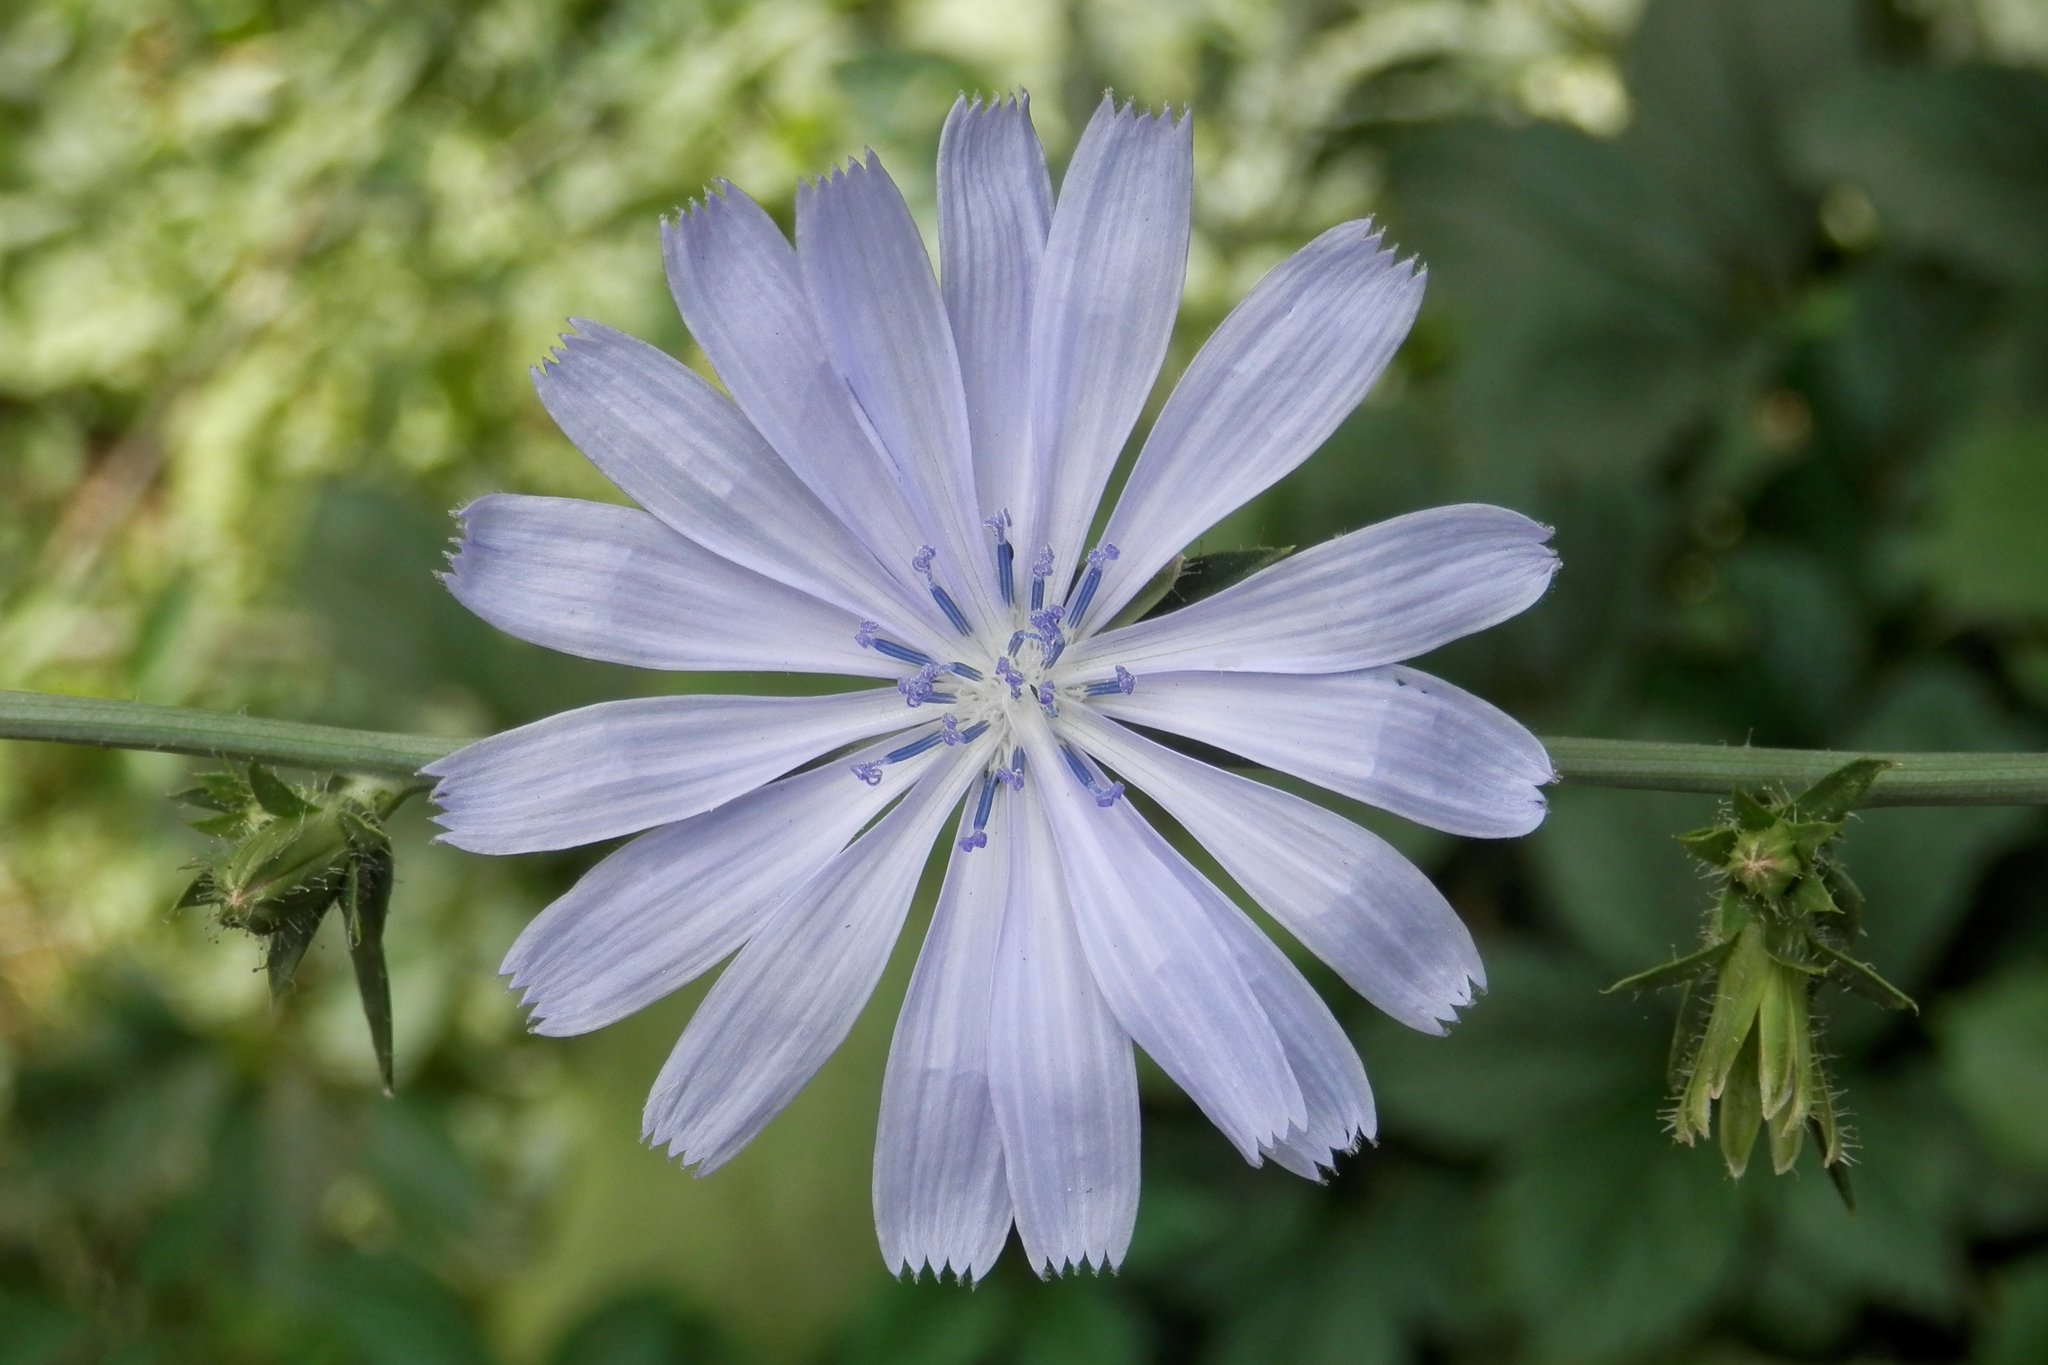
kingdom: Plantae
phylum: Tracheophyta
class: Magnoliopsida
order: Asterales
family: Asteraceae
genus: Cichorium
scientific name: Cichorium intybus
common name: Chicory
